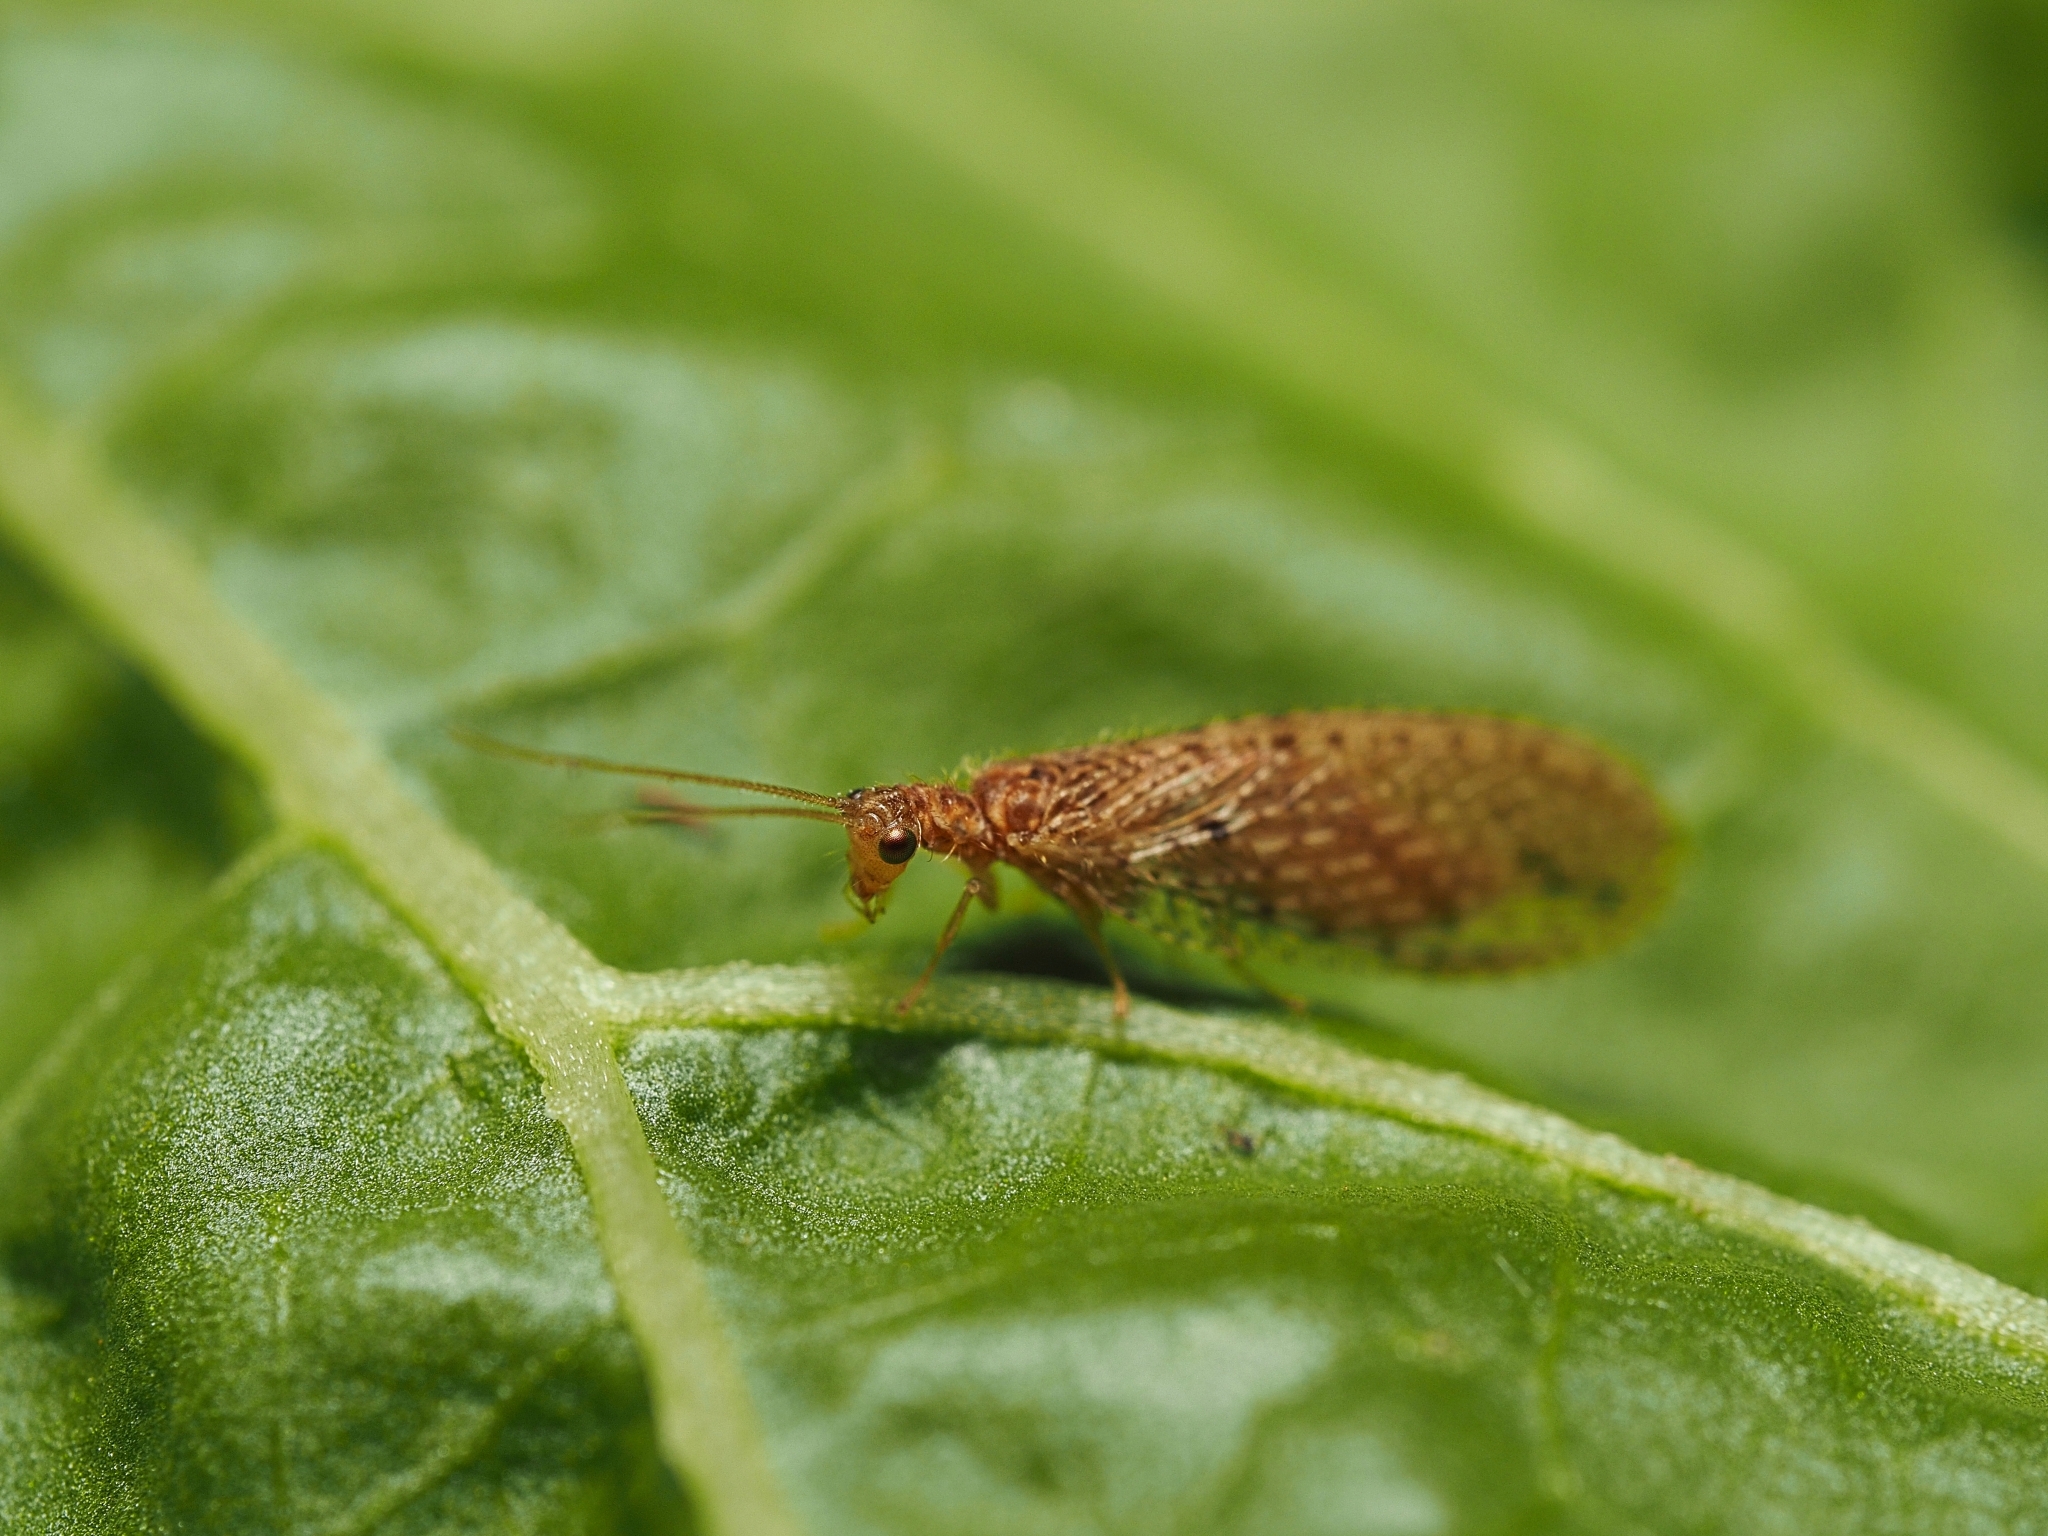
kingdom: Animalia
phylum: Arthropoda
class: Insecta
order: Neuroptera
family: Hemerobiidae
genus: Micromus
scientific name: Micromus tasmaniae
